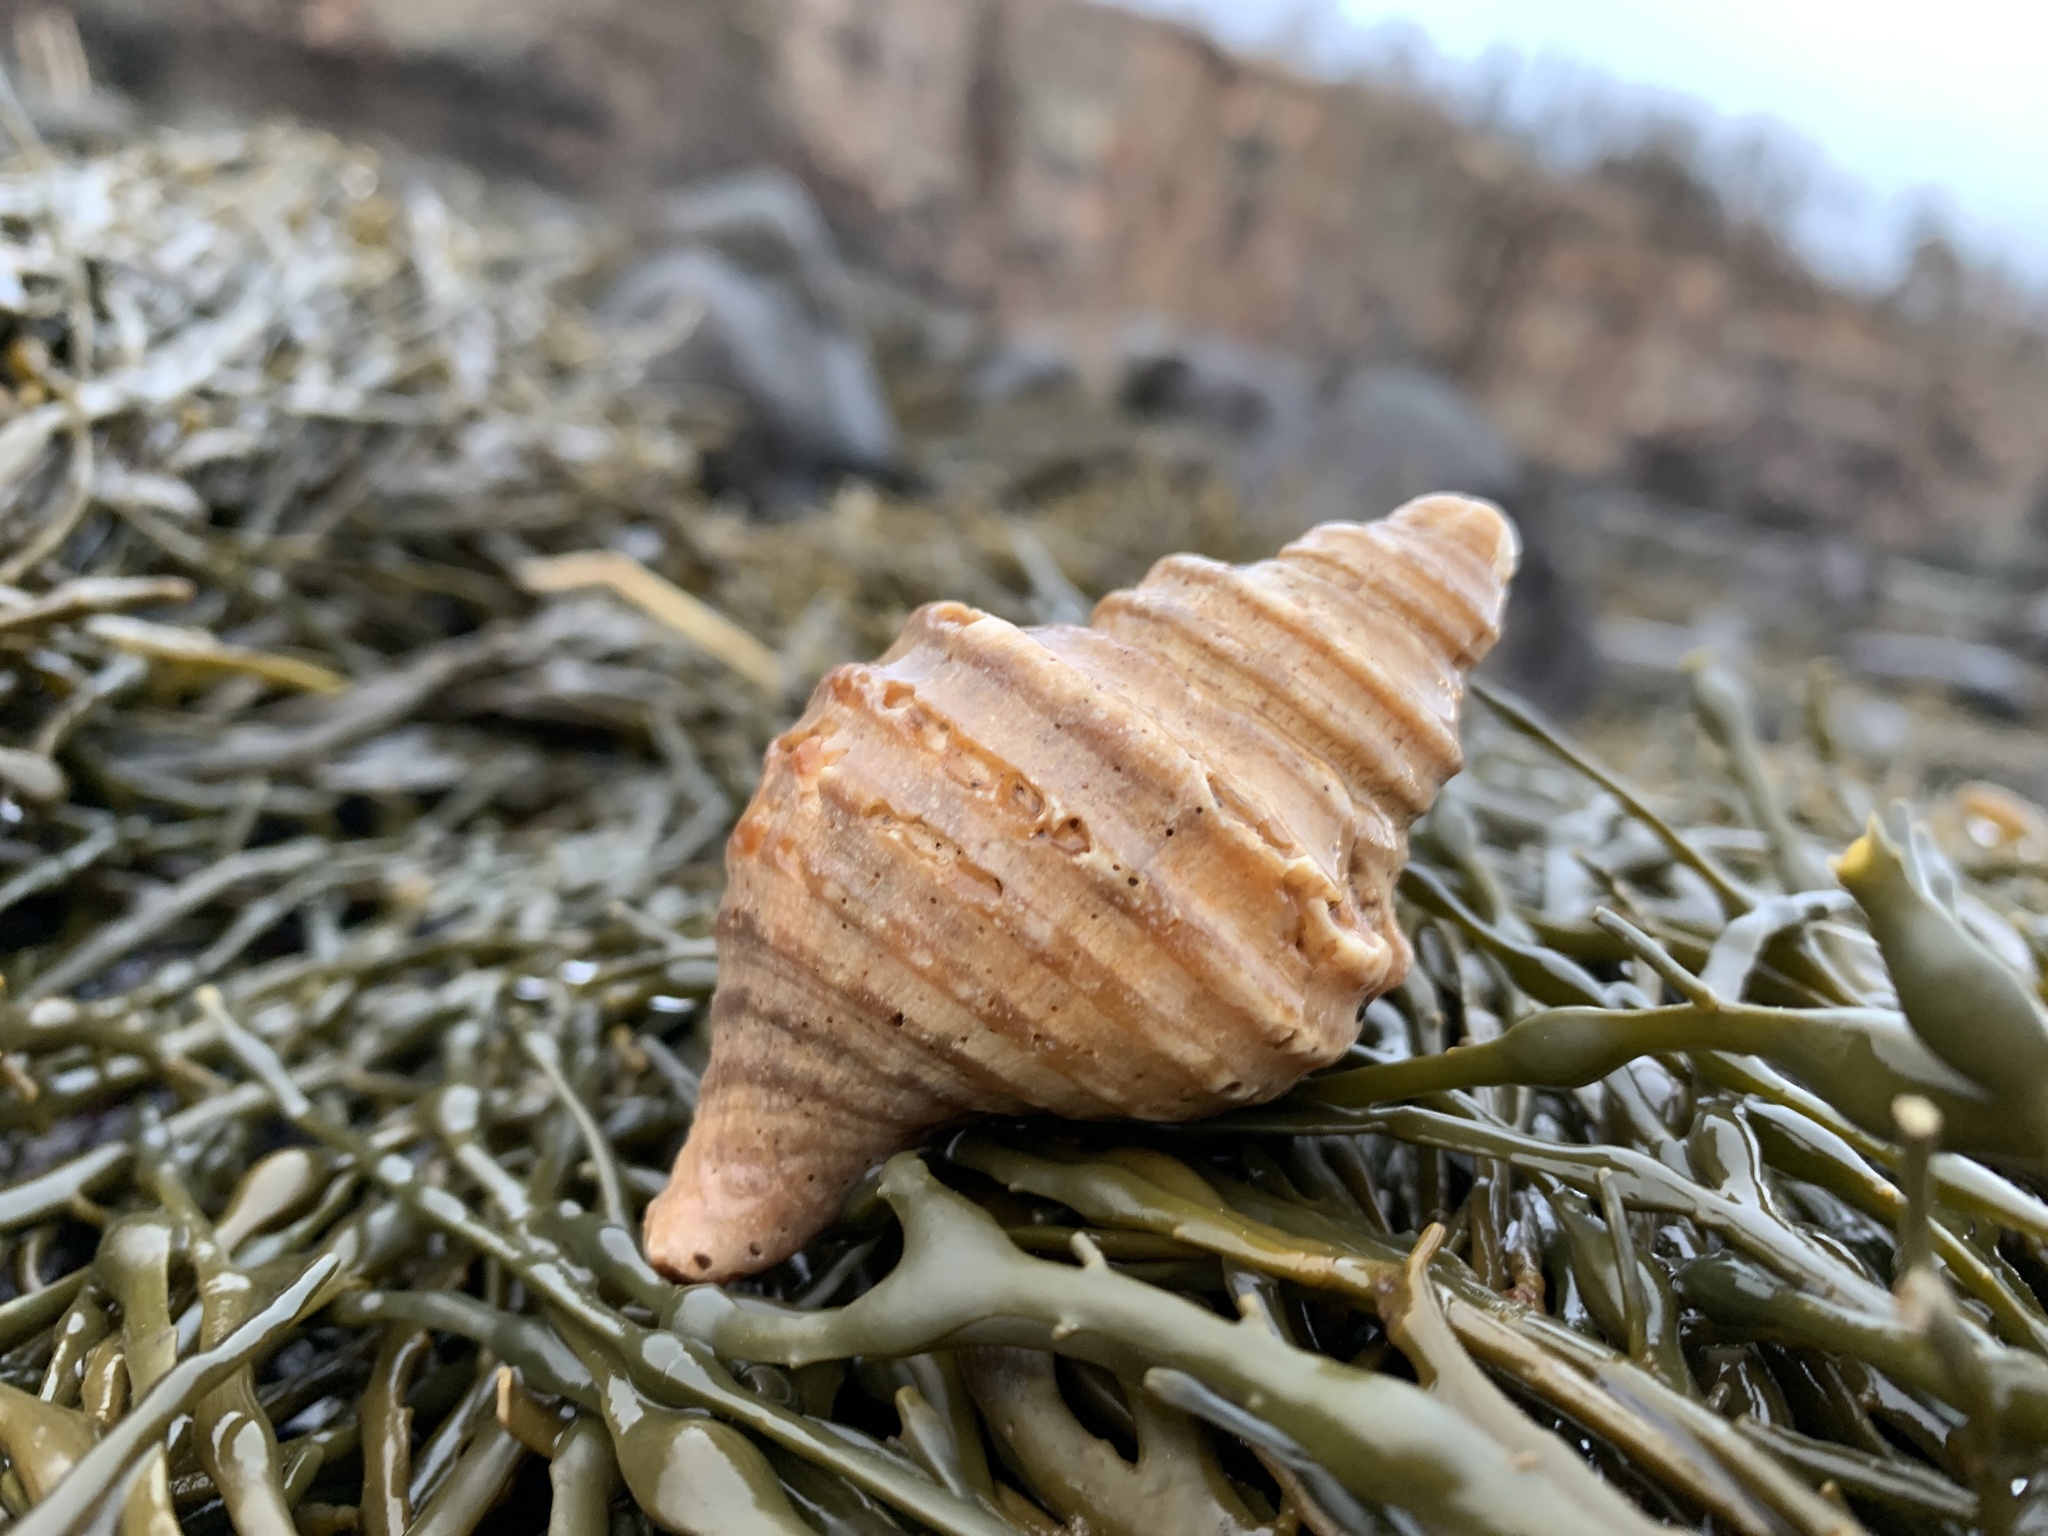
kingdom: Animalia
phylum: Mollusca
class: Gastropoda
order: Neogastropoda
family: Buccinidae
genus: Neptunea
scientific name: Neptunea decemcostata
